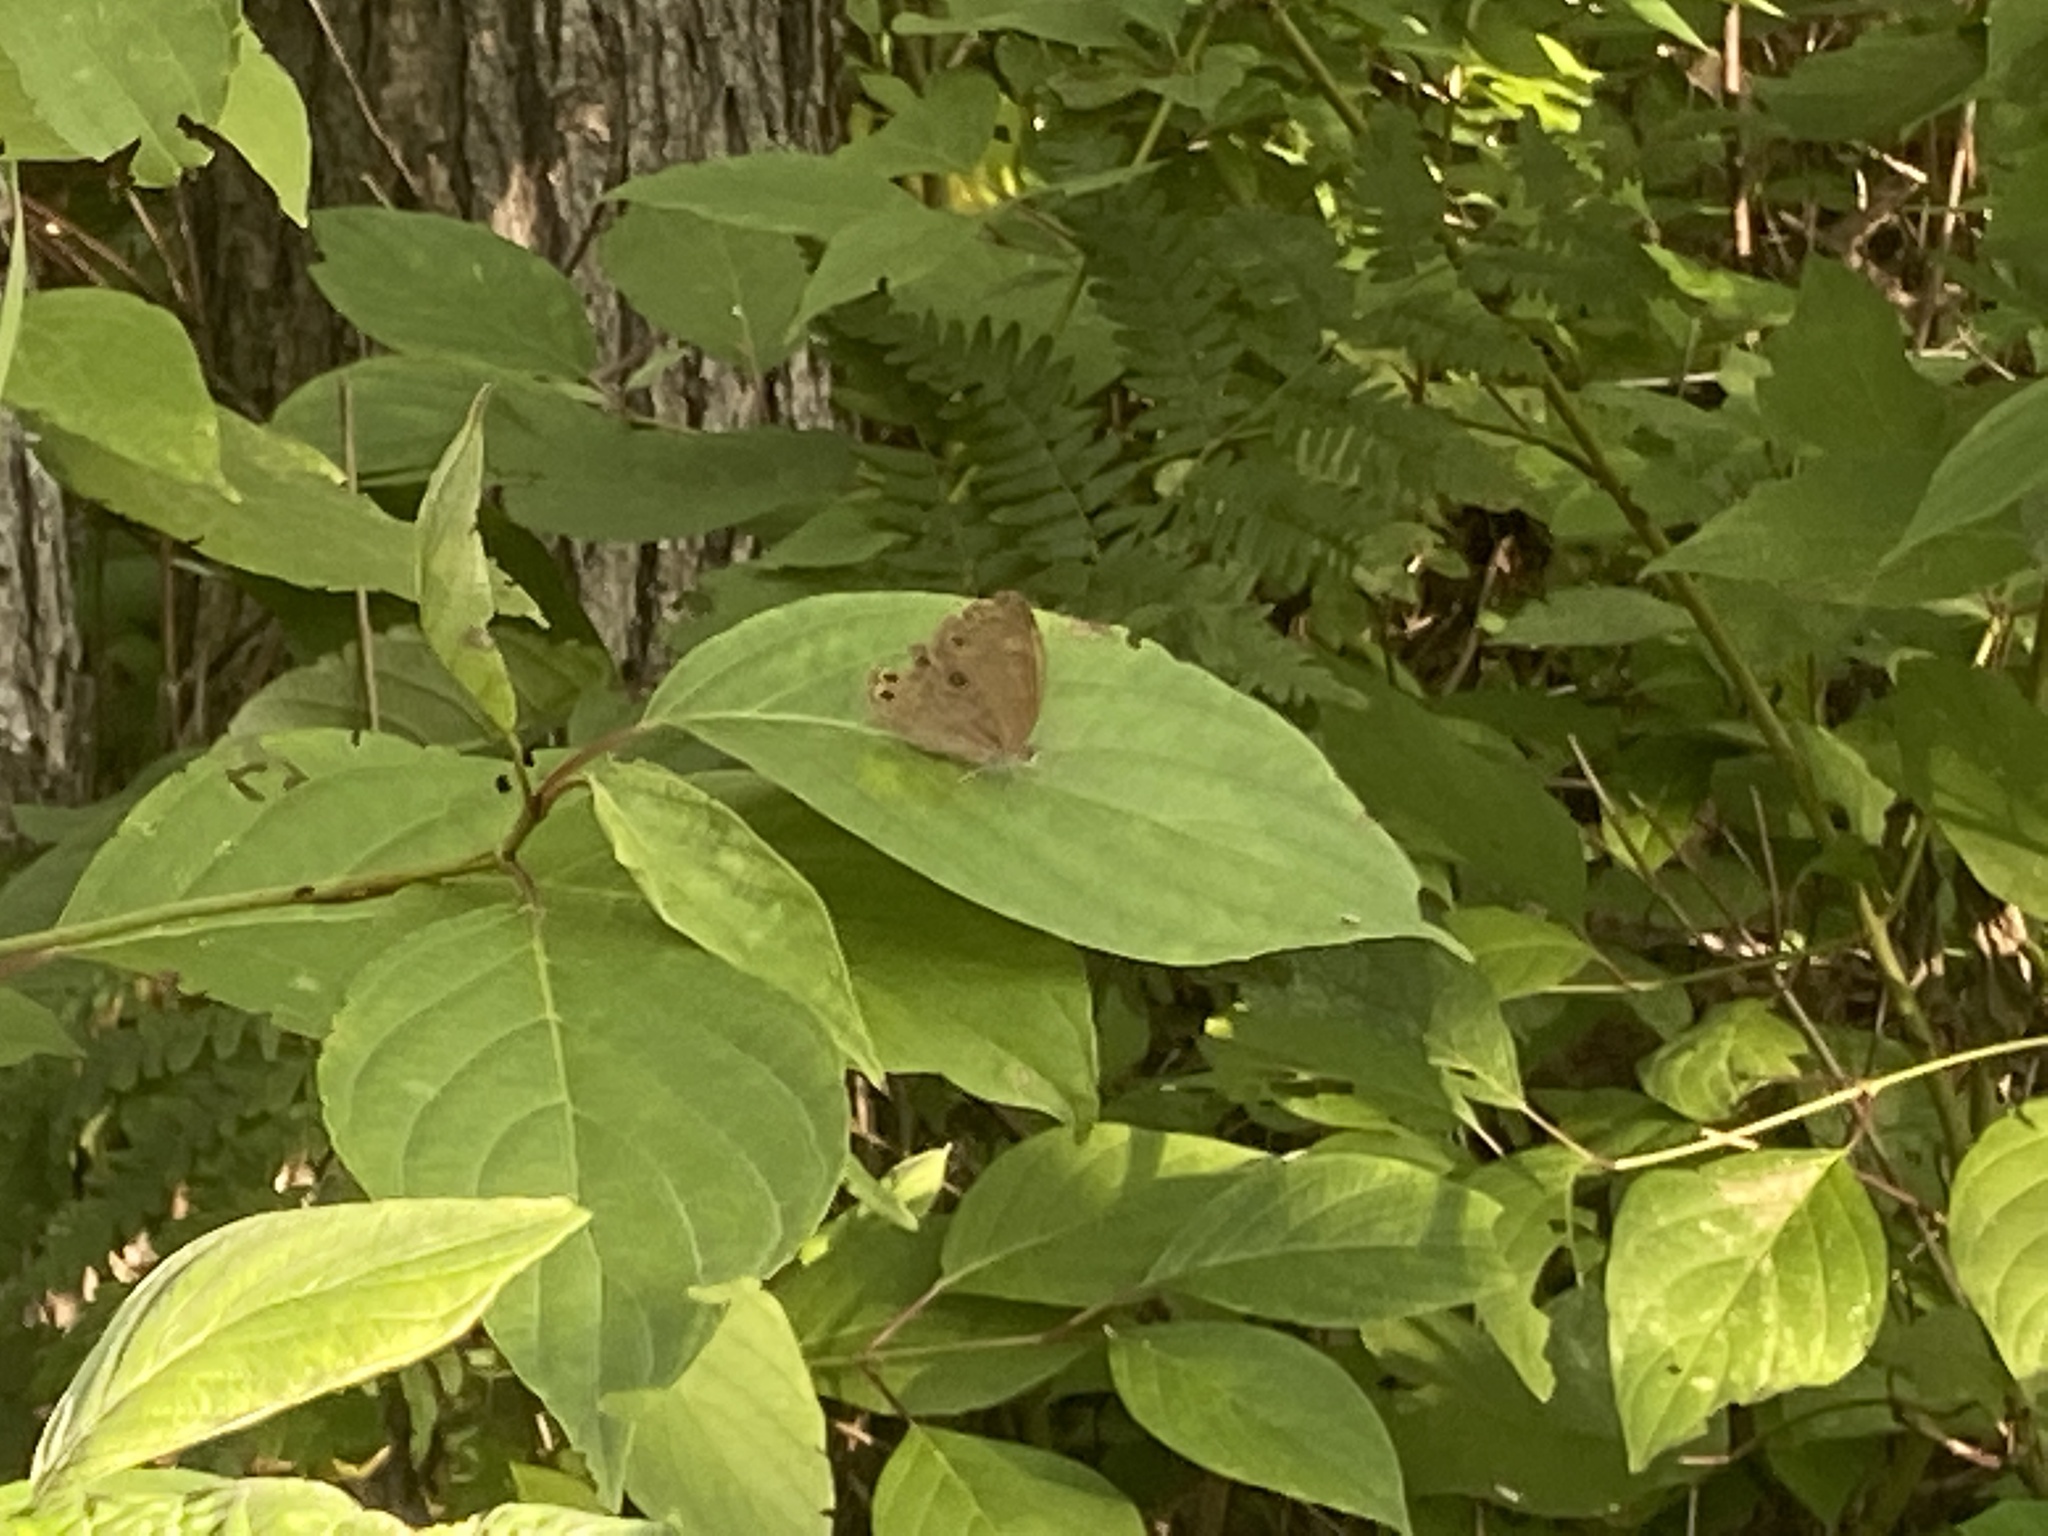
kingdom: Animalia
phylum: Arthropoda
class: Insecta
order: Lepidoptera
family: Nymphalidae
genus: Lethe
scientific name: Lethe eurydice
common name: Eyed brown
